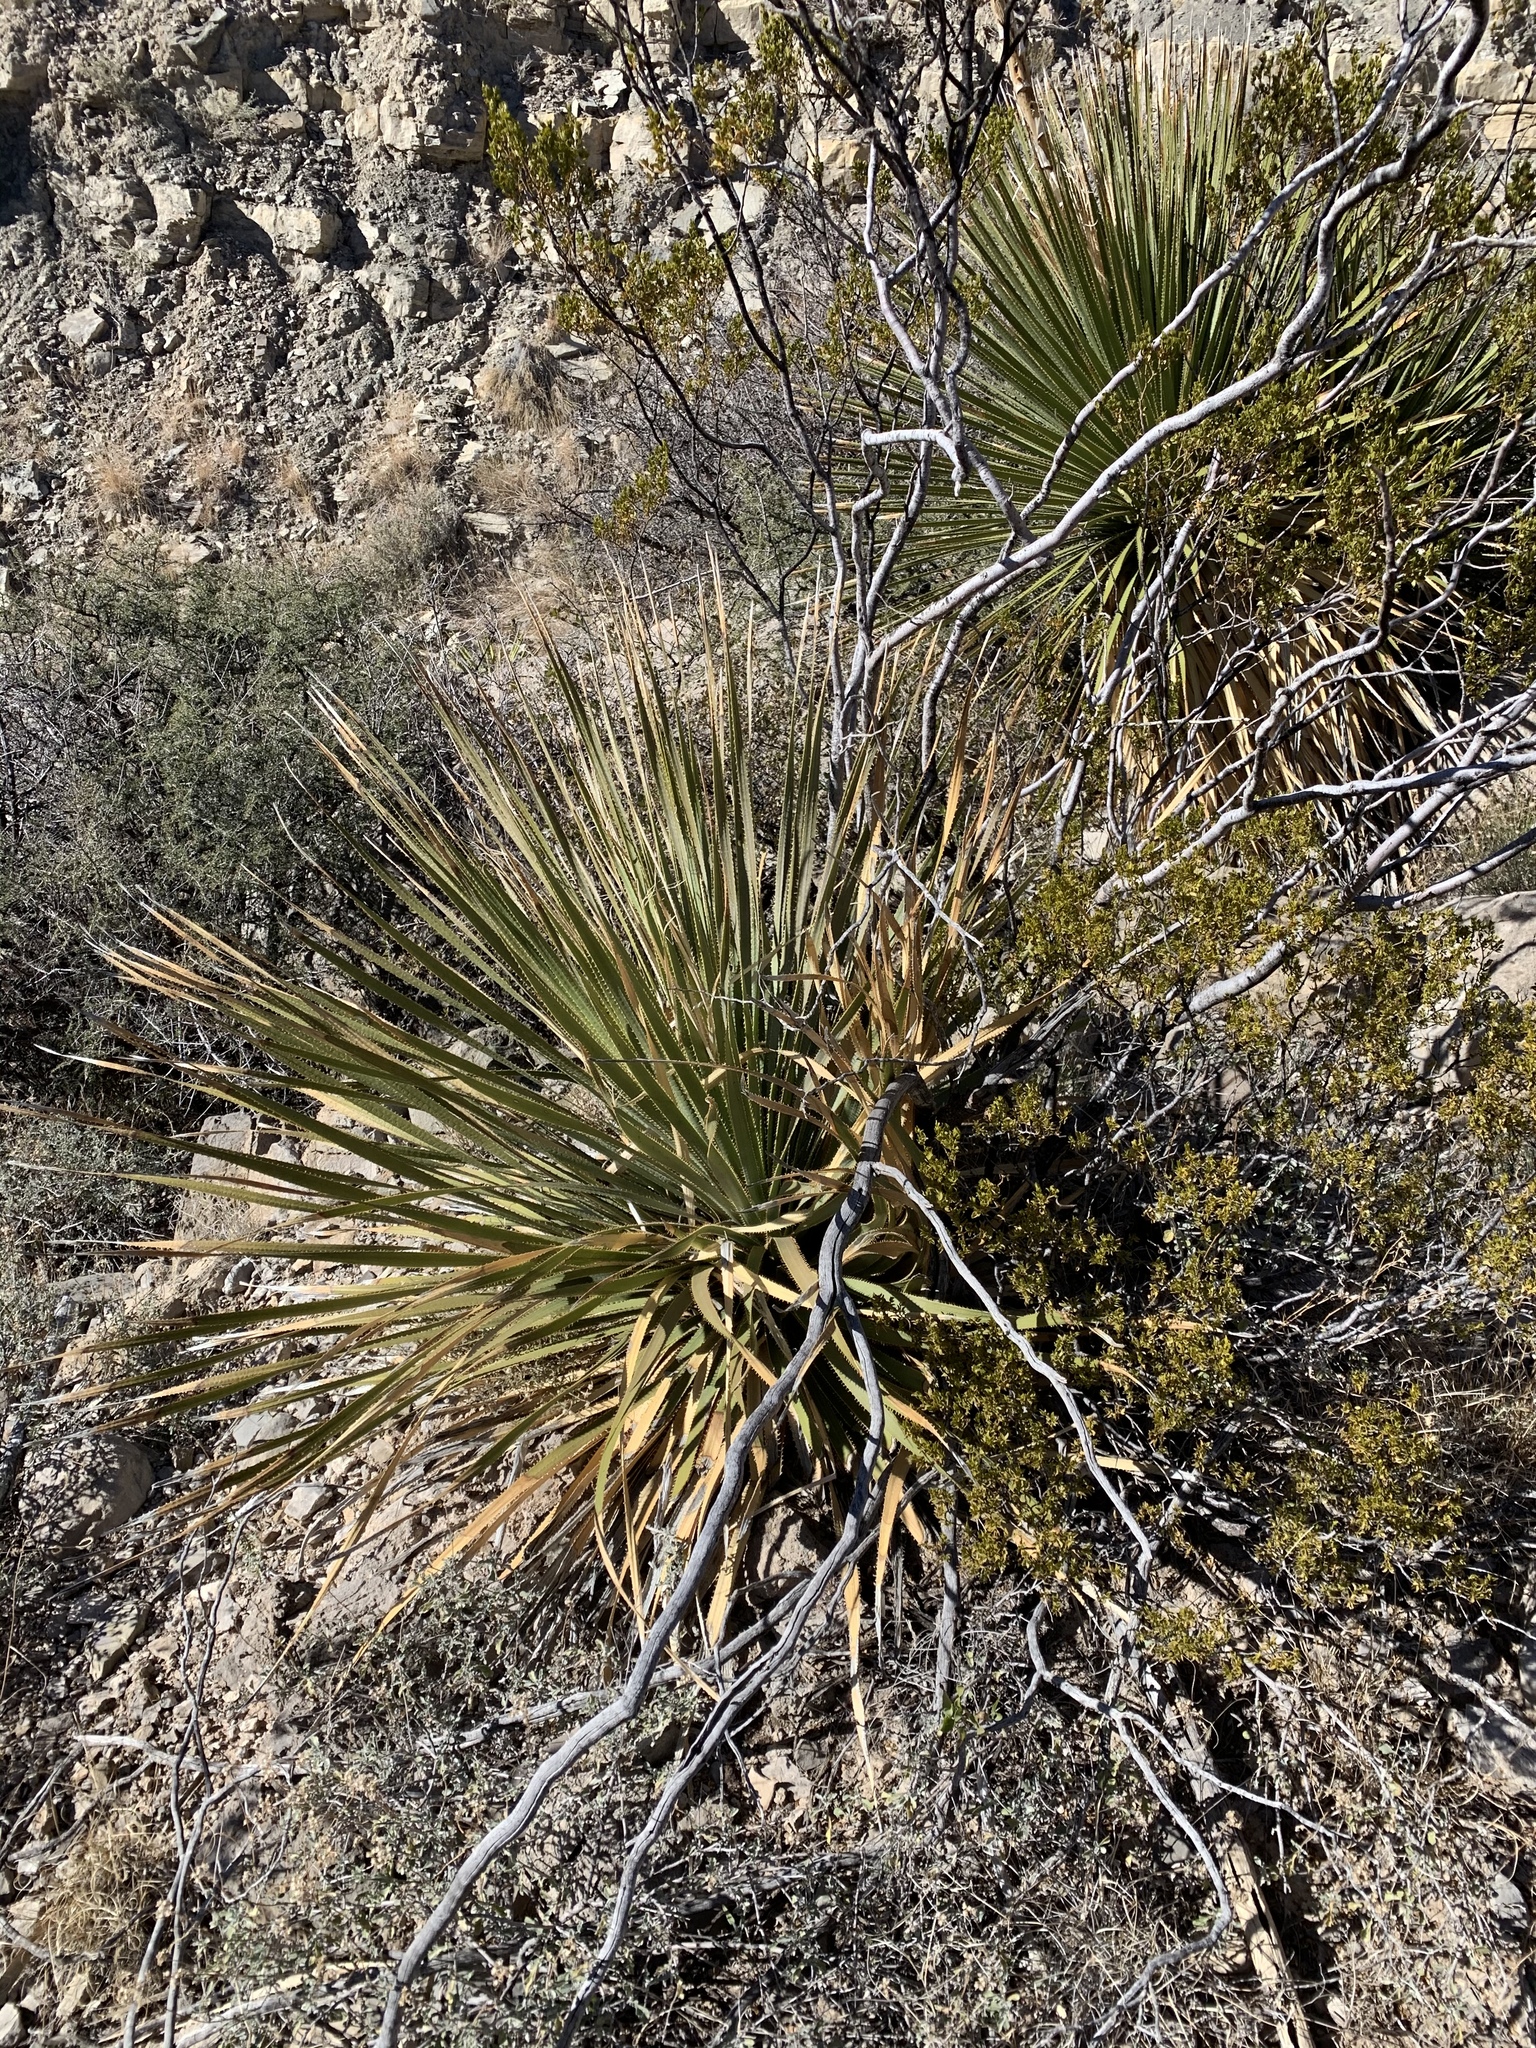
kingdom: Plantae
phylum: Tracheophyta
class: Liliopsida
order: Asparagales
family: Asparagaceae
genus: Dasylirion
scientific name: Dasylirion wheeleri
